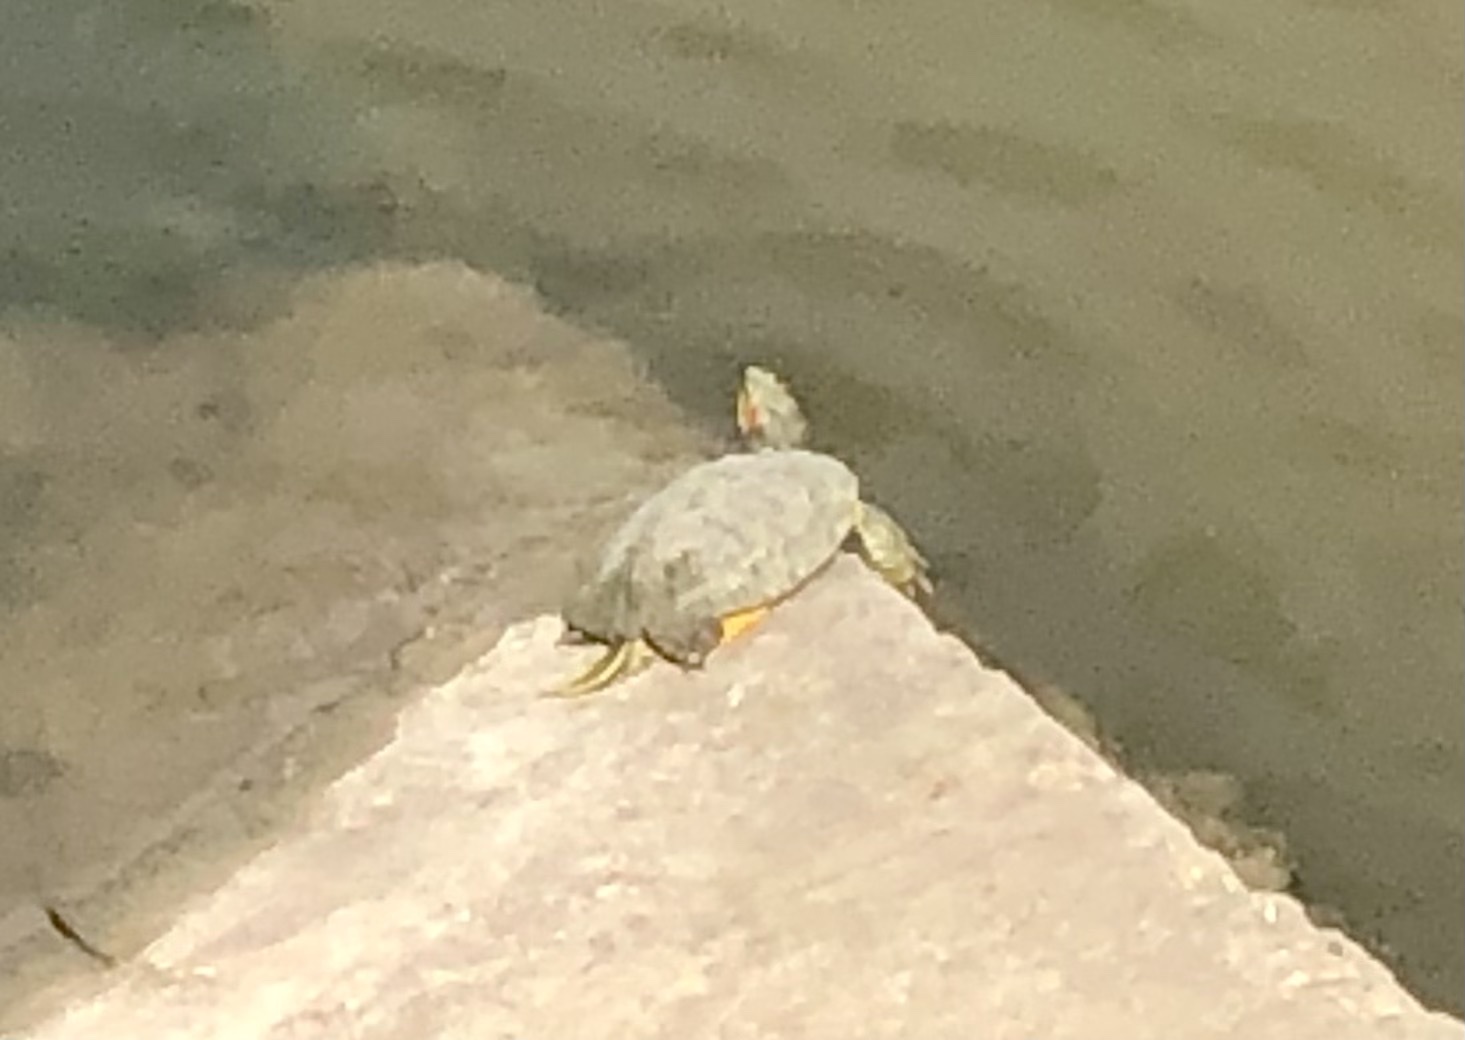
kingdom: Animalia
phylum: Chordata
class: Testudines
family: Emydidae
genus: Trachemys
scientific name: Trachemys scripta
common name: Slider
